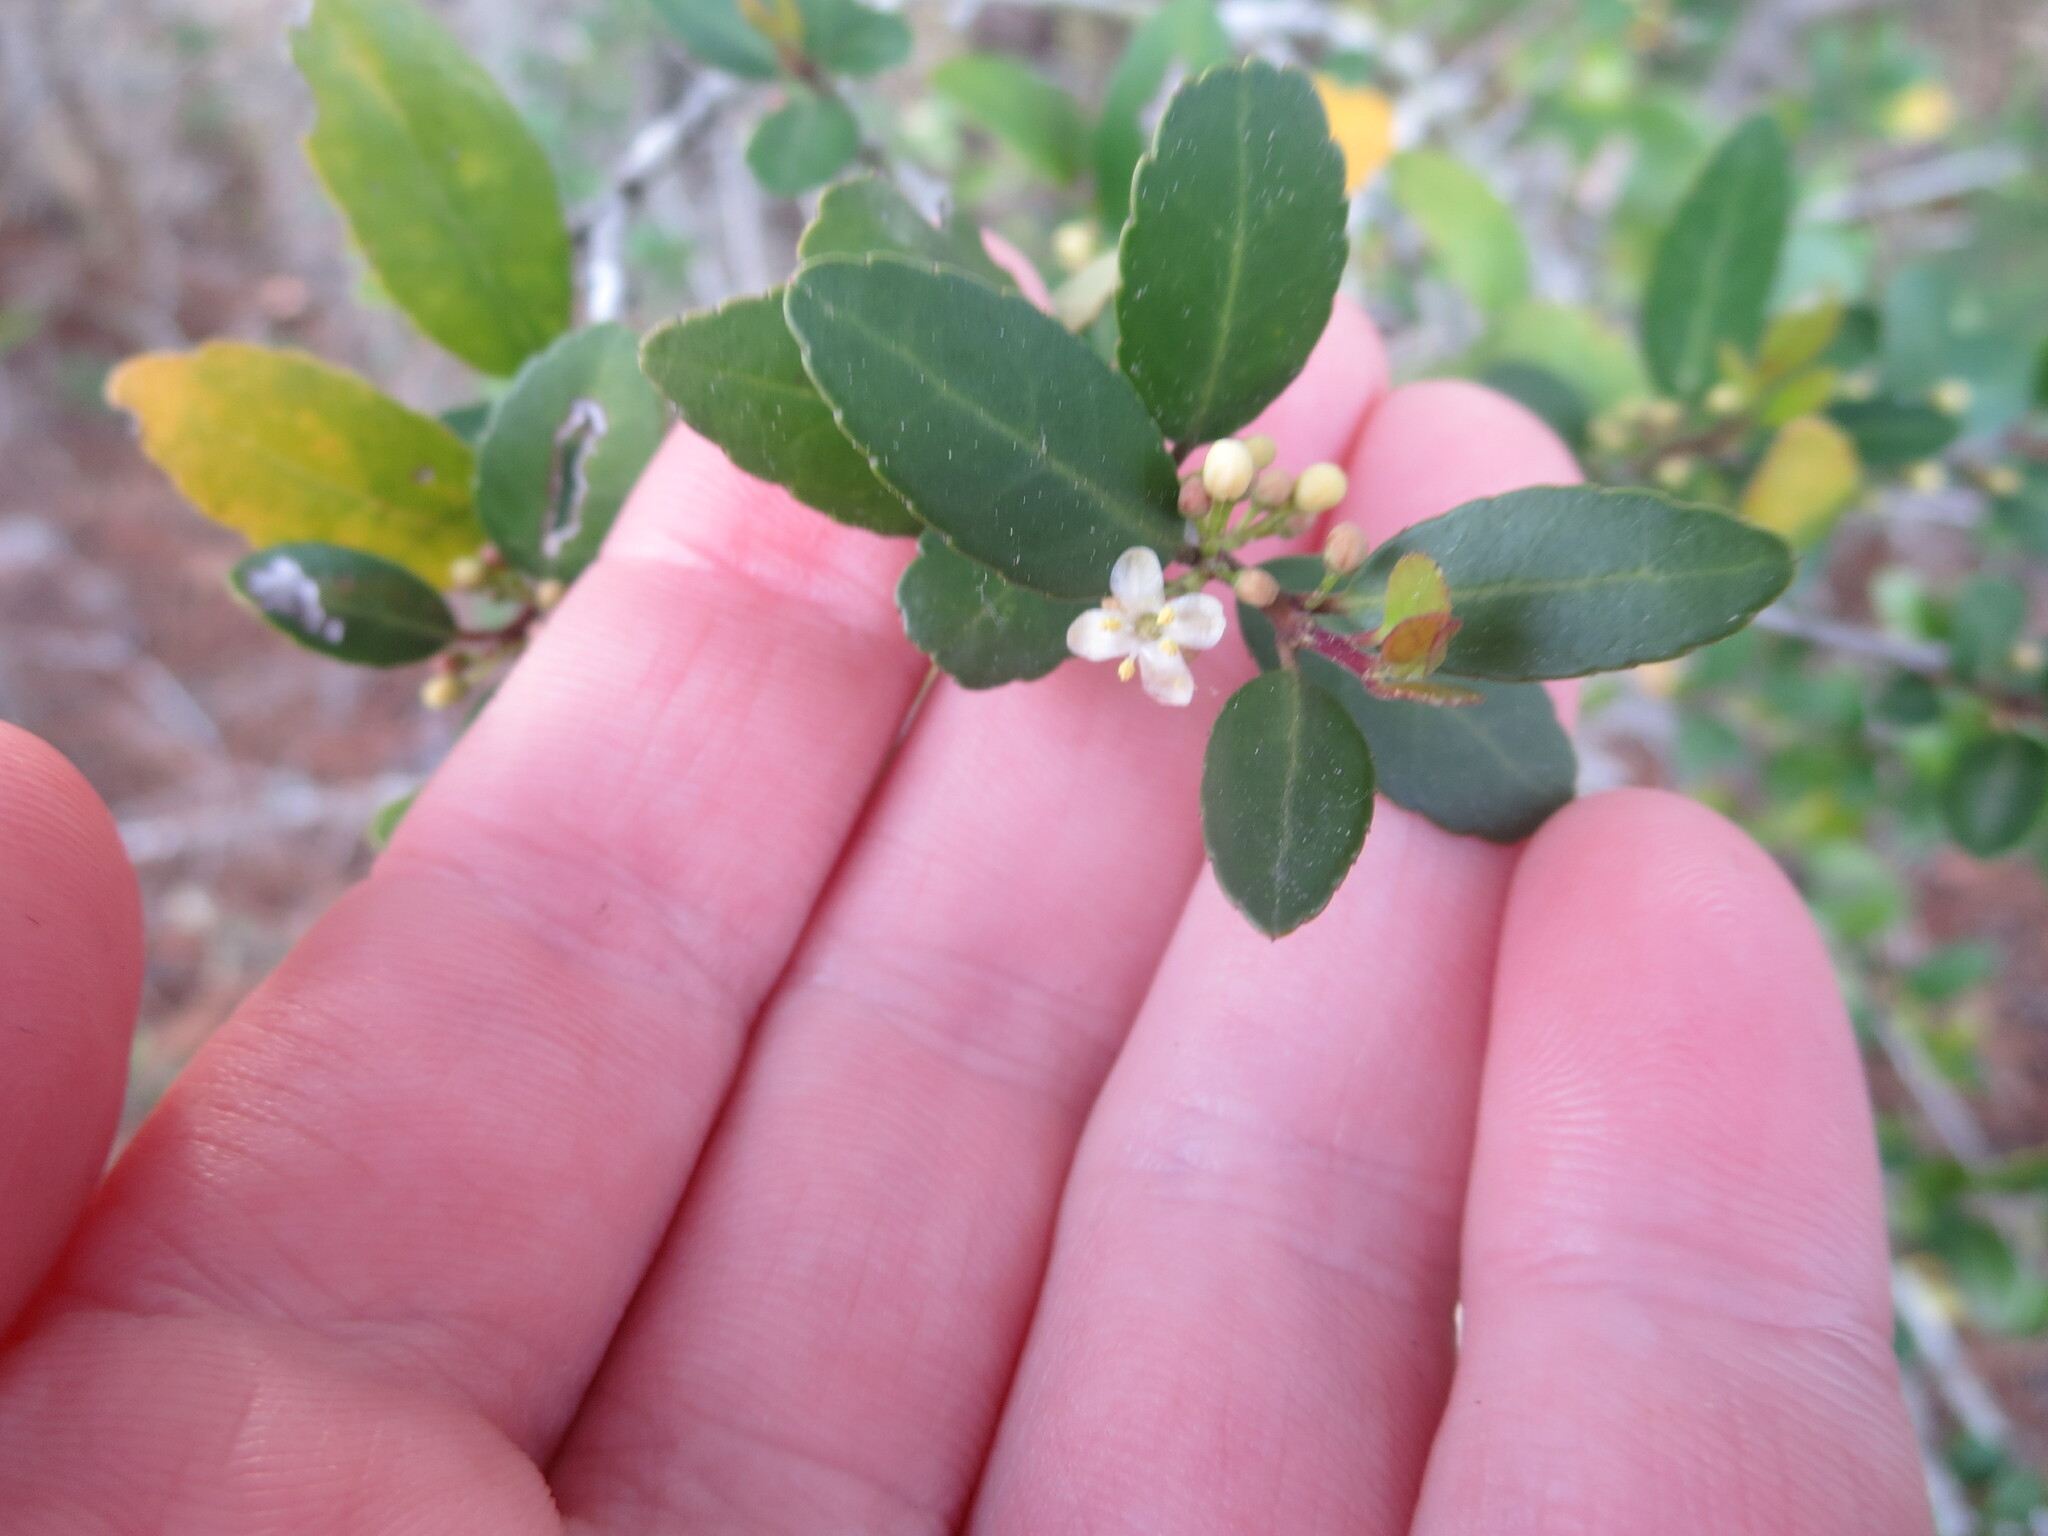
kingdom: Plantae
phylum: Tracheophyta
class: Magnoliopsida
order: Aquifoliales
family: Aquifoliaceae
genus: Ilex
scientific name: Ilex vomitoria
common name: Yaupon holly
